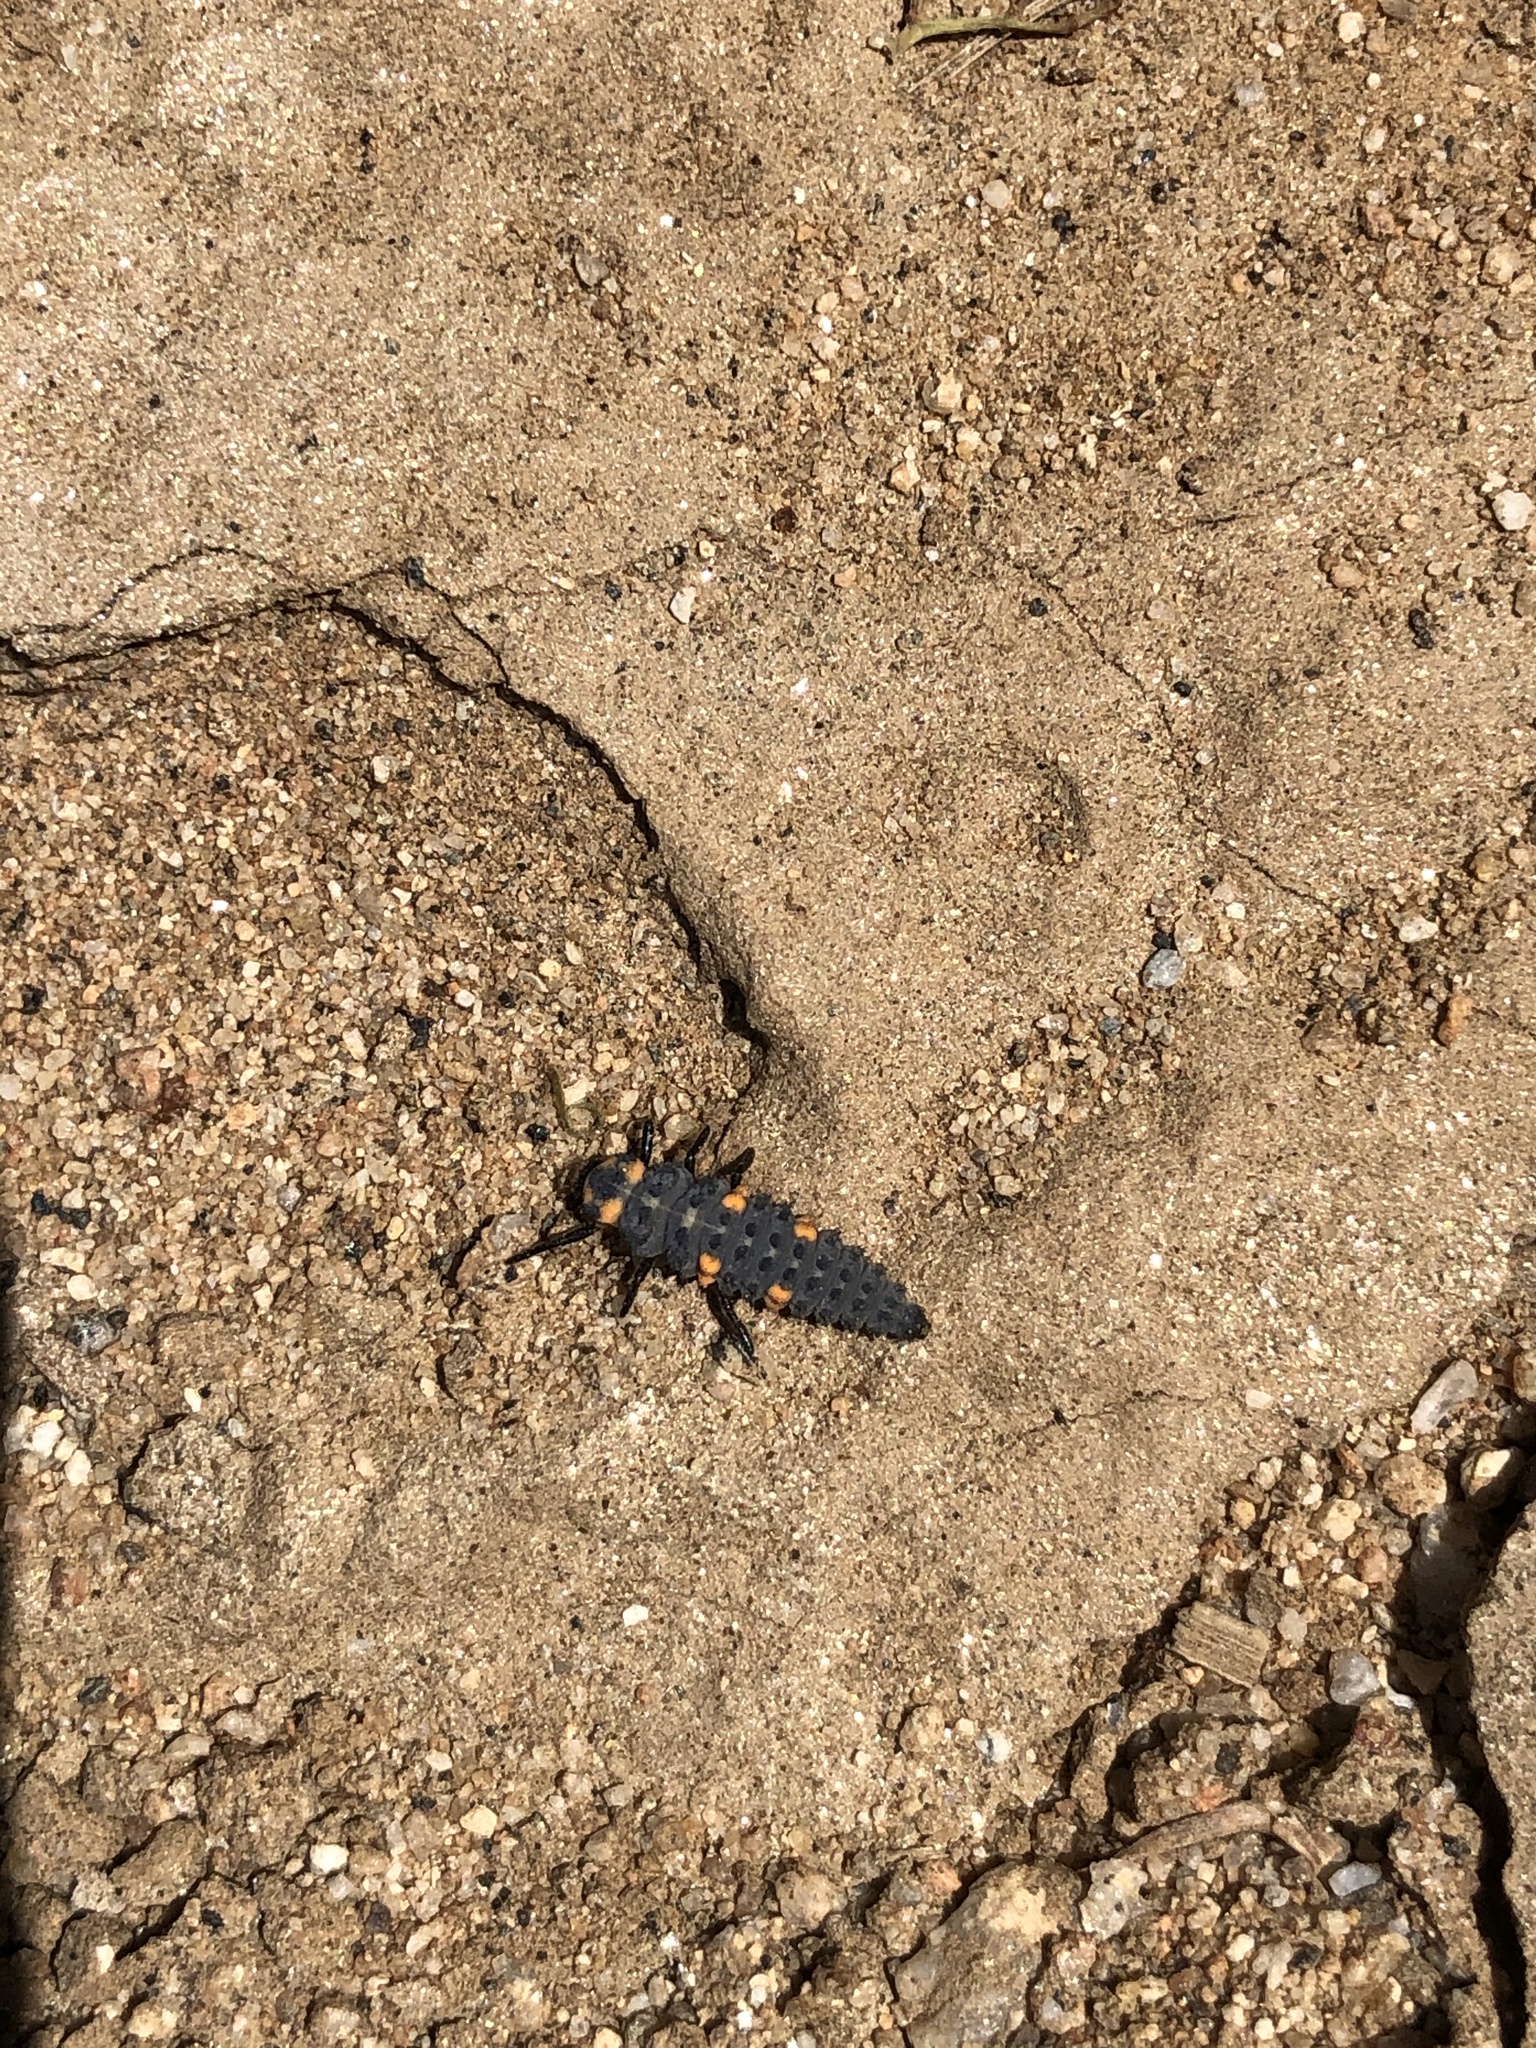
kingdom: Animalia
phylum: Arthropoda
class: Insecta
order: Coleoptera
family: Coccinellidae
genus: Coccinella
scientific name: Coccinella septempunctata
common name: Sevenspotted lady beetle
